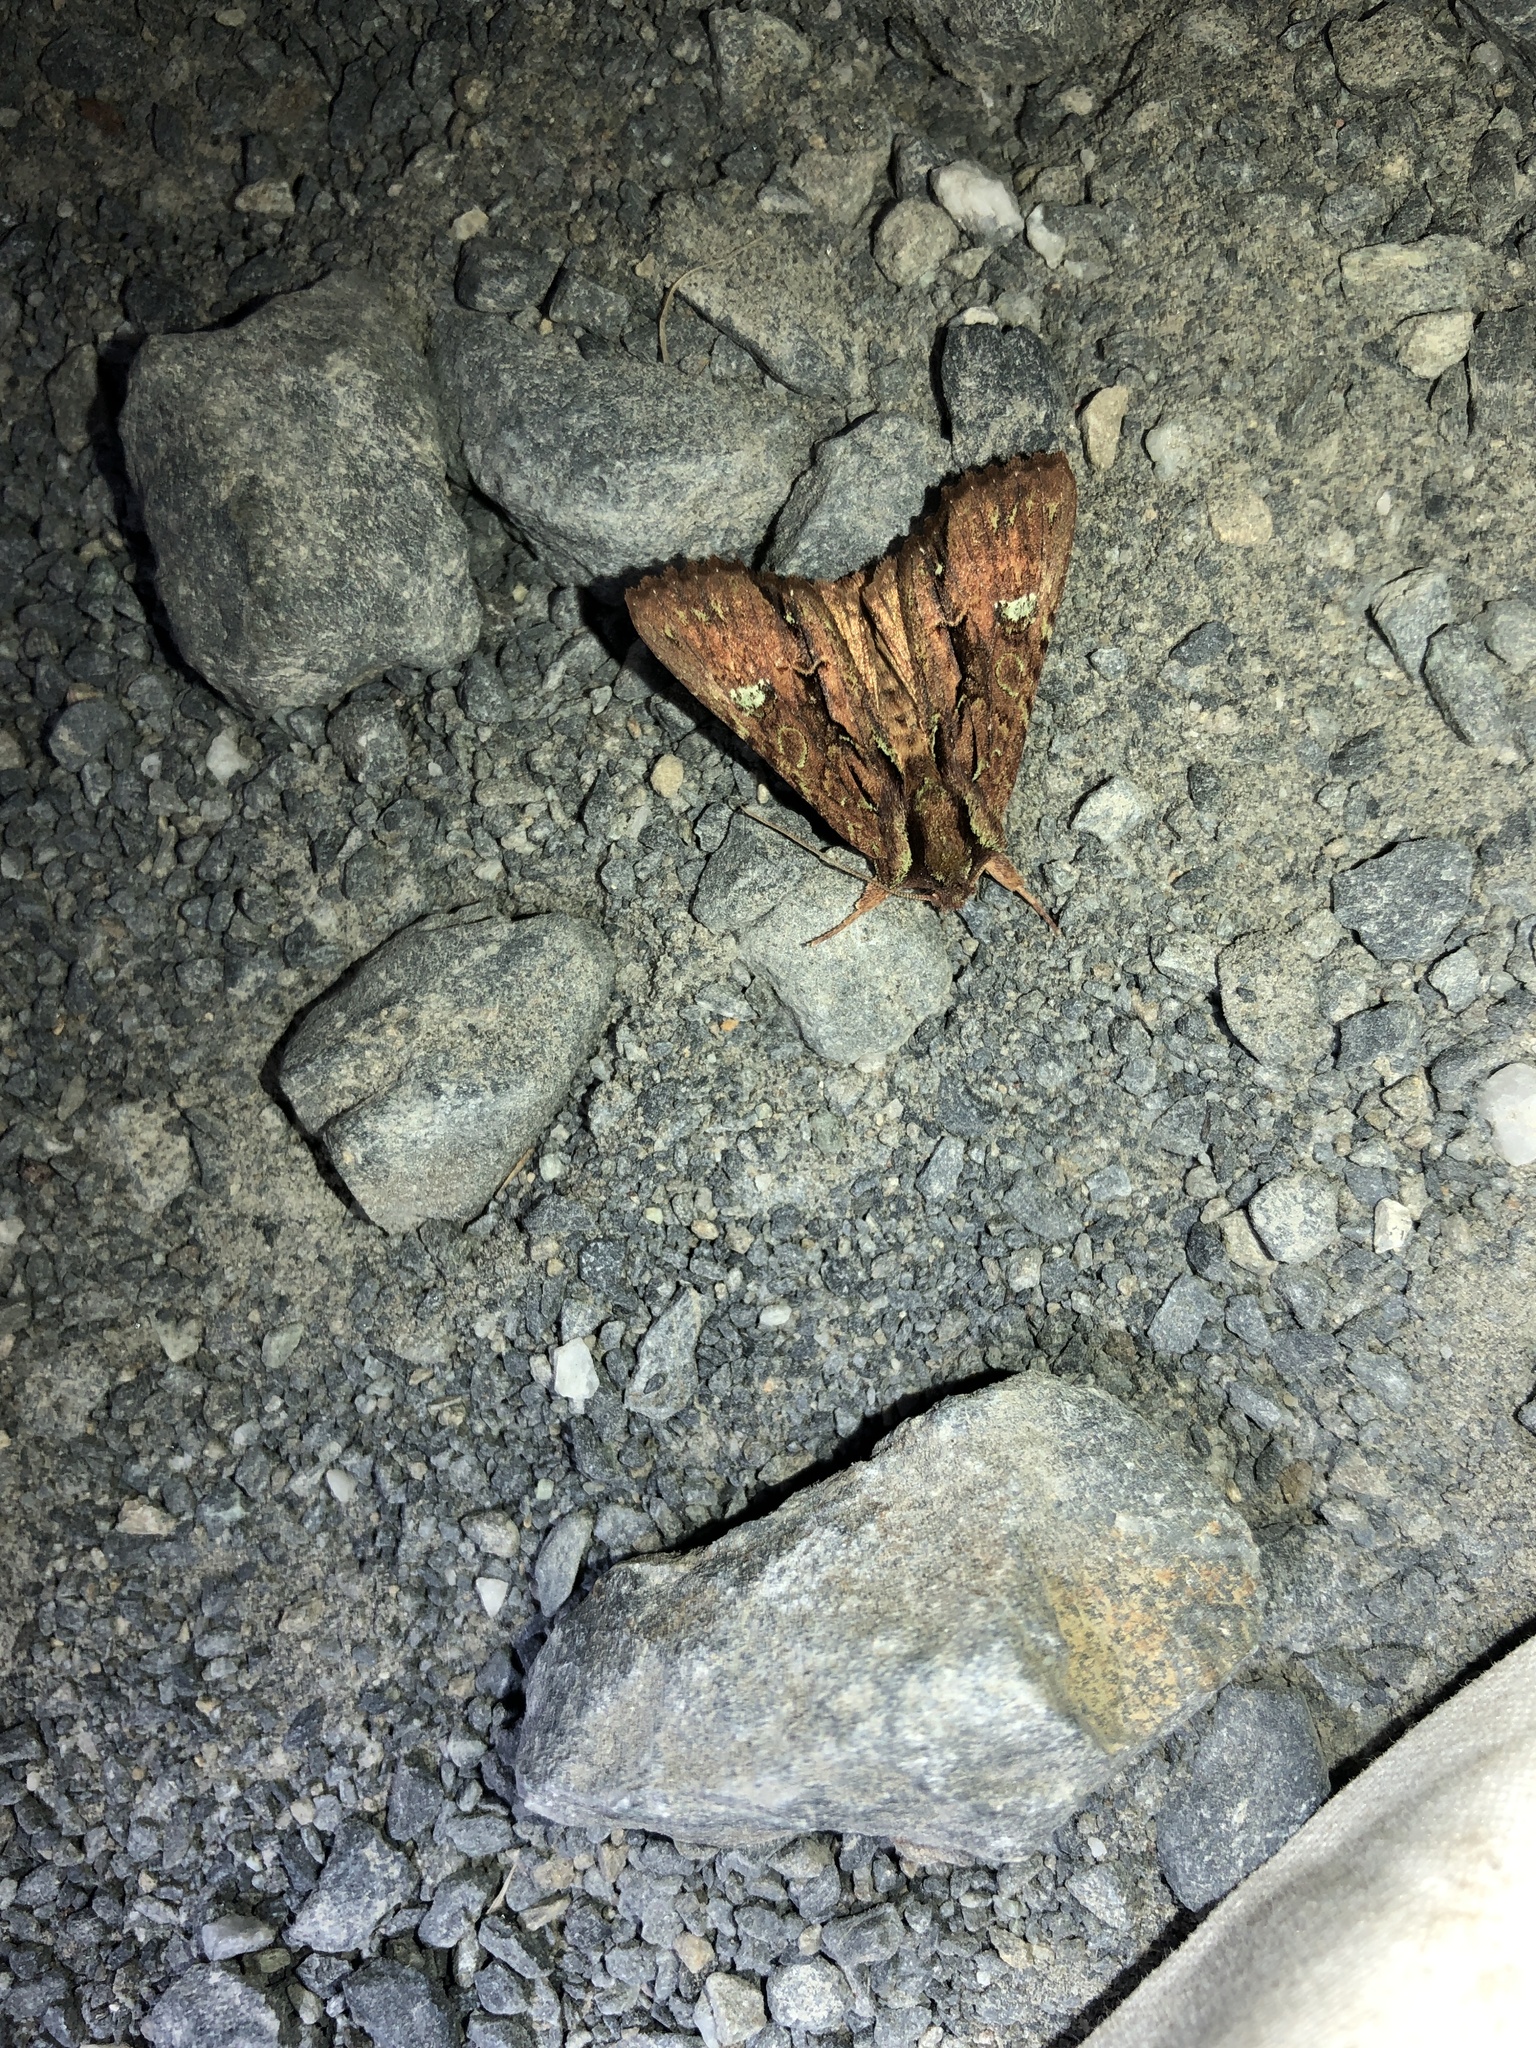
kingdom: Animalia
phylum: Arthropoda
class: Insecta
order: Lepidoptera
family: Noctuidae
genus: Meterana
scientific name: Meterana diatmeta
